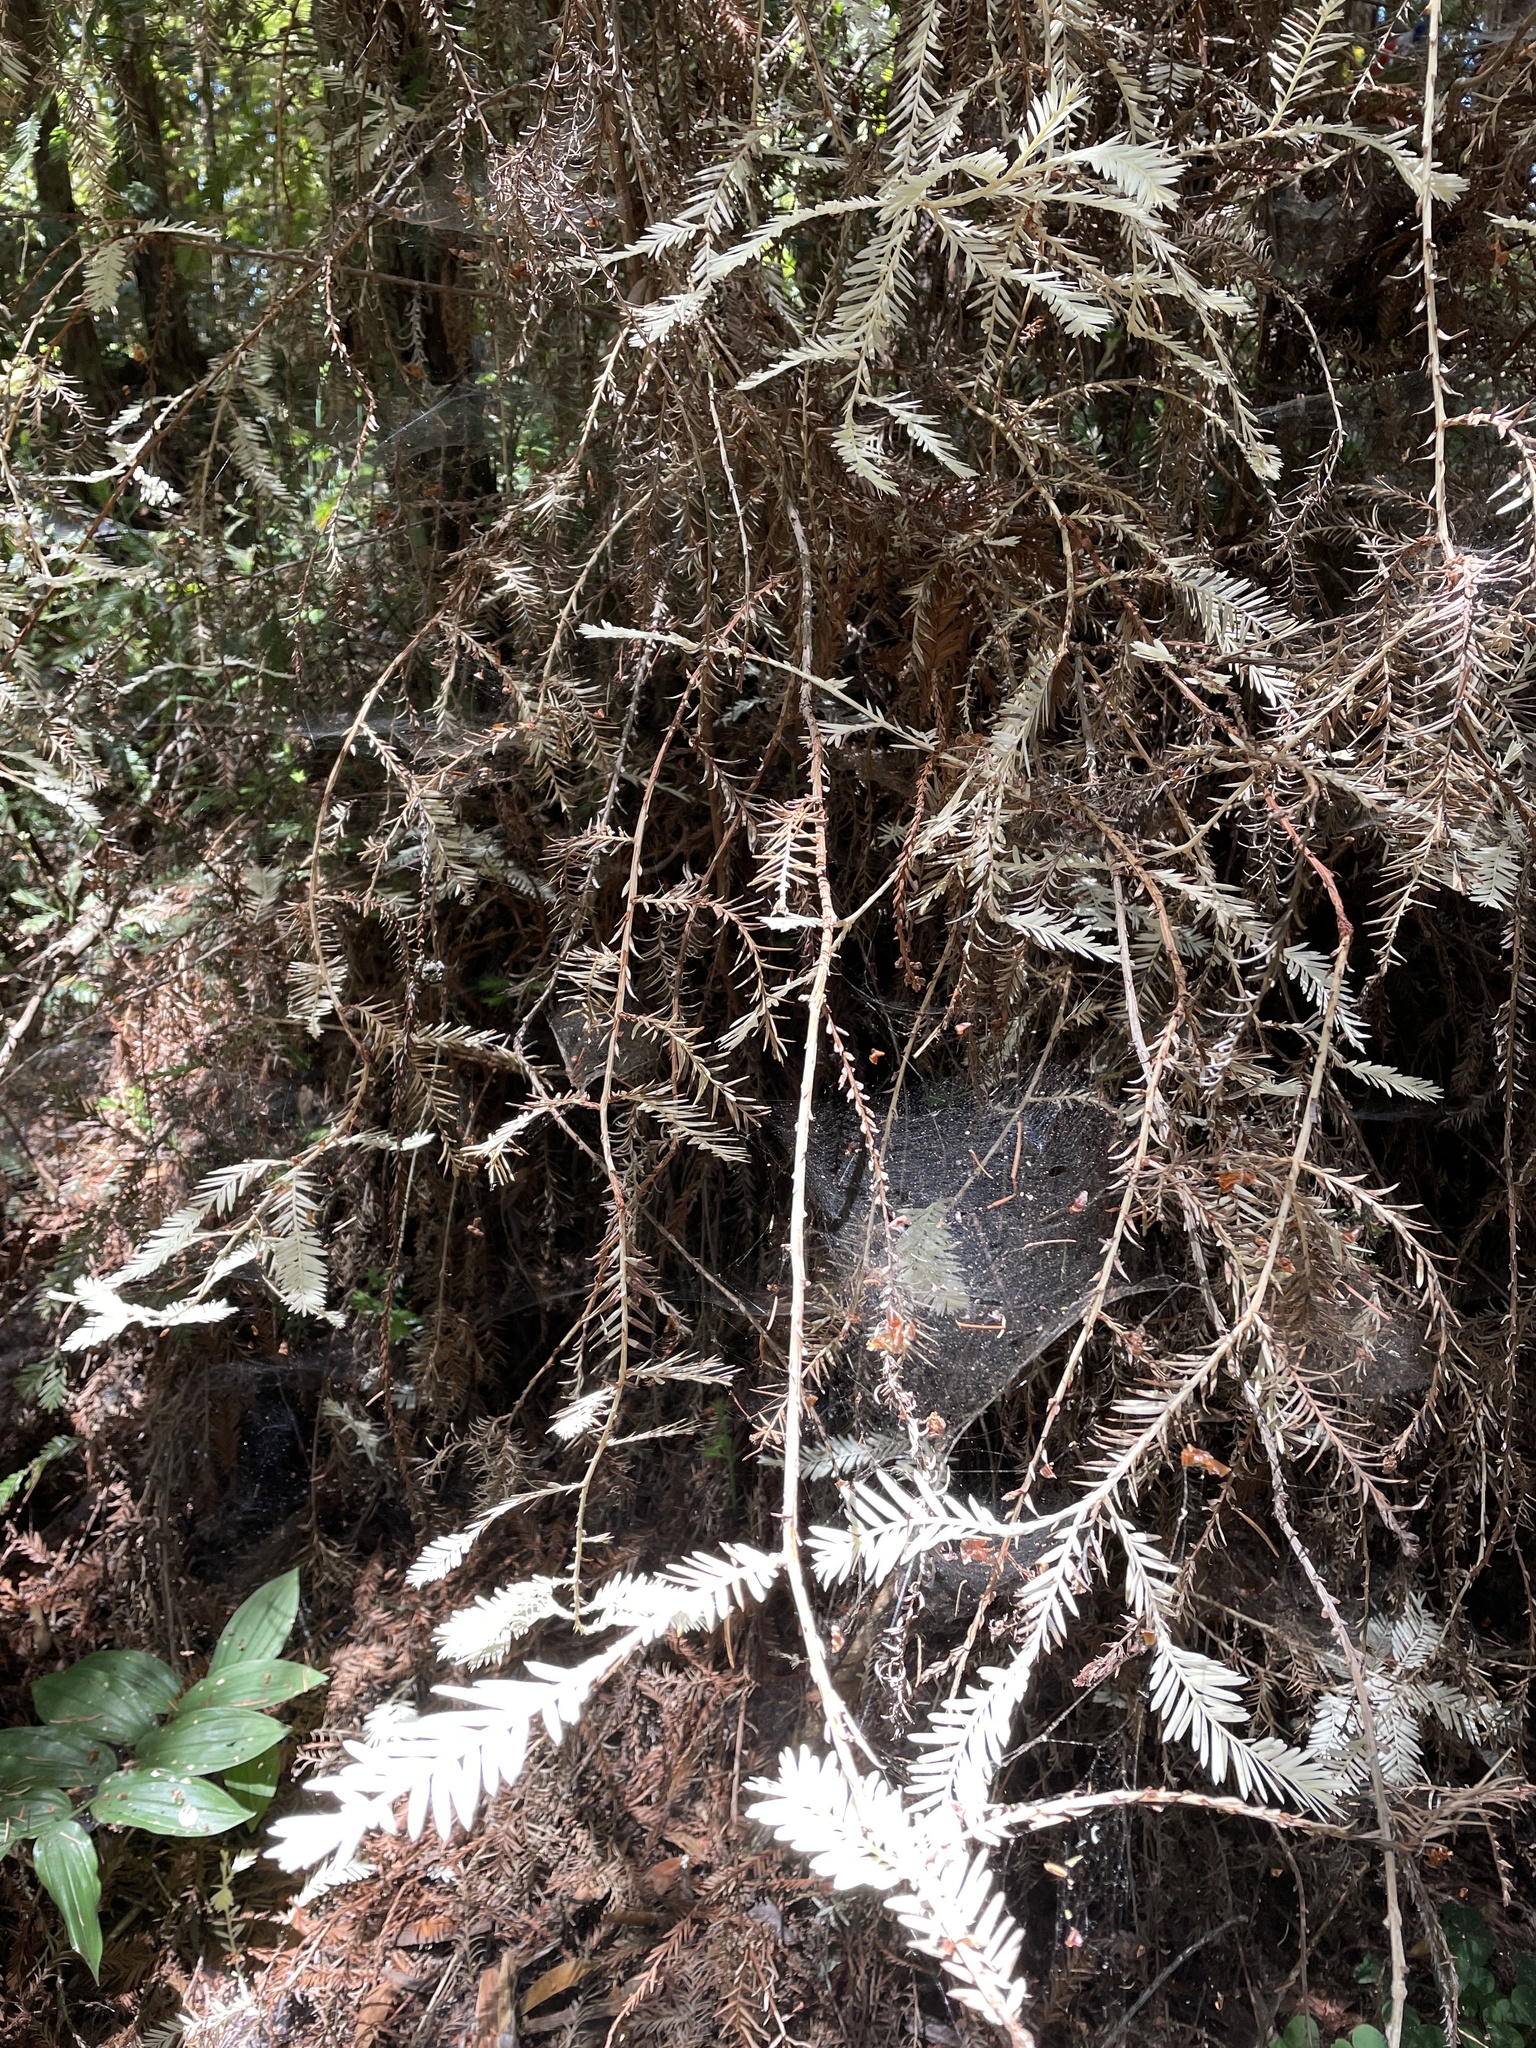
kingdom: Plantae
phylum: Tracheophyta
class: Pinopsida
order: Pinales
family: Cupressaceae
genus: Sequoia
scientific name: Sequoia sempervirens
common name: Coast redwood
